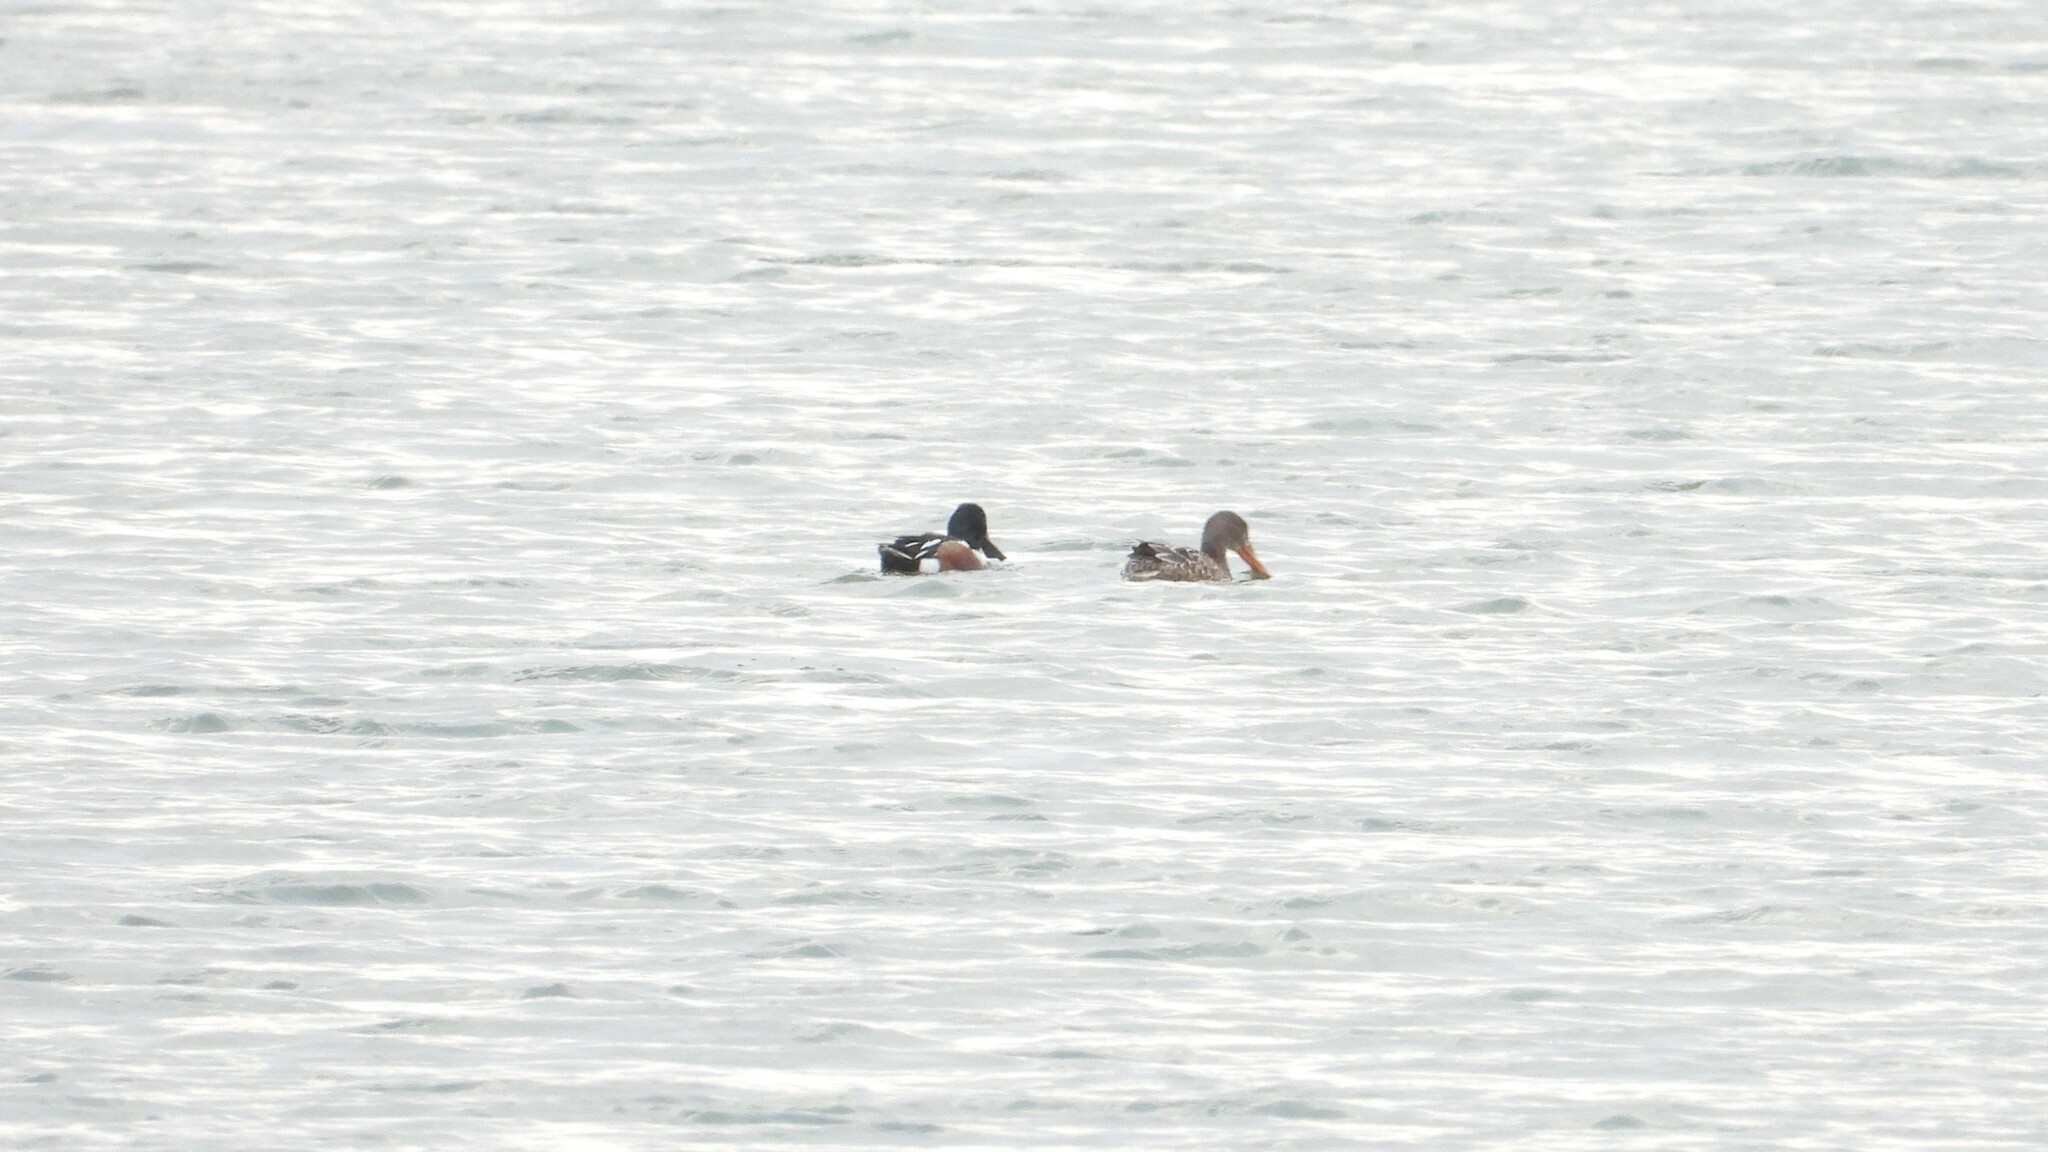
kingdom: Animalia
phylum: Chordata
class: Aves
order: Anseriformes
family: Anatidae
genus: Spatula
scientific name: Spatula clypeata
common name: Northern shoveler
